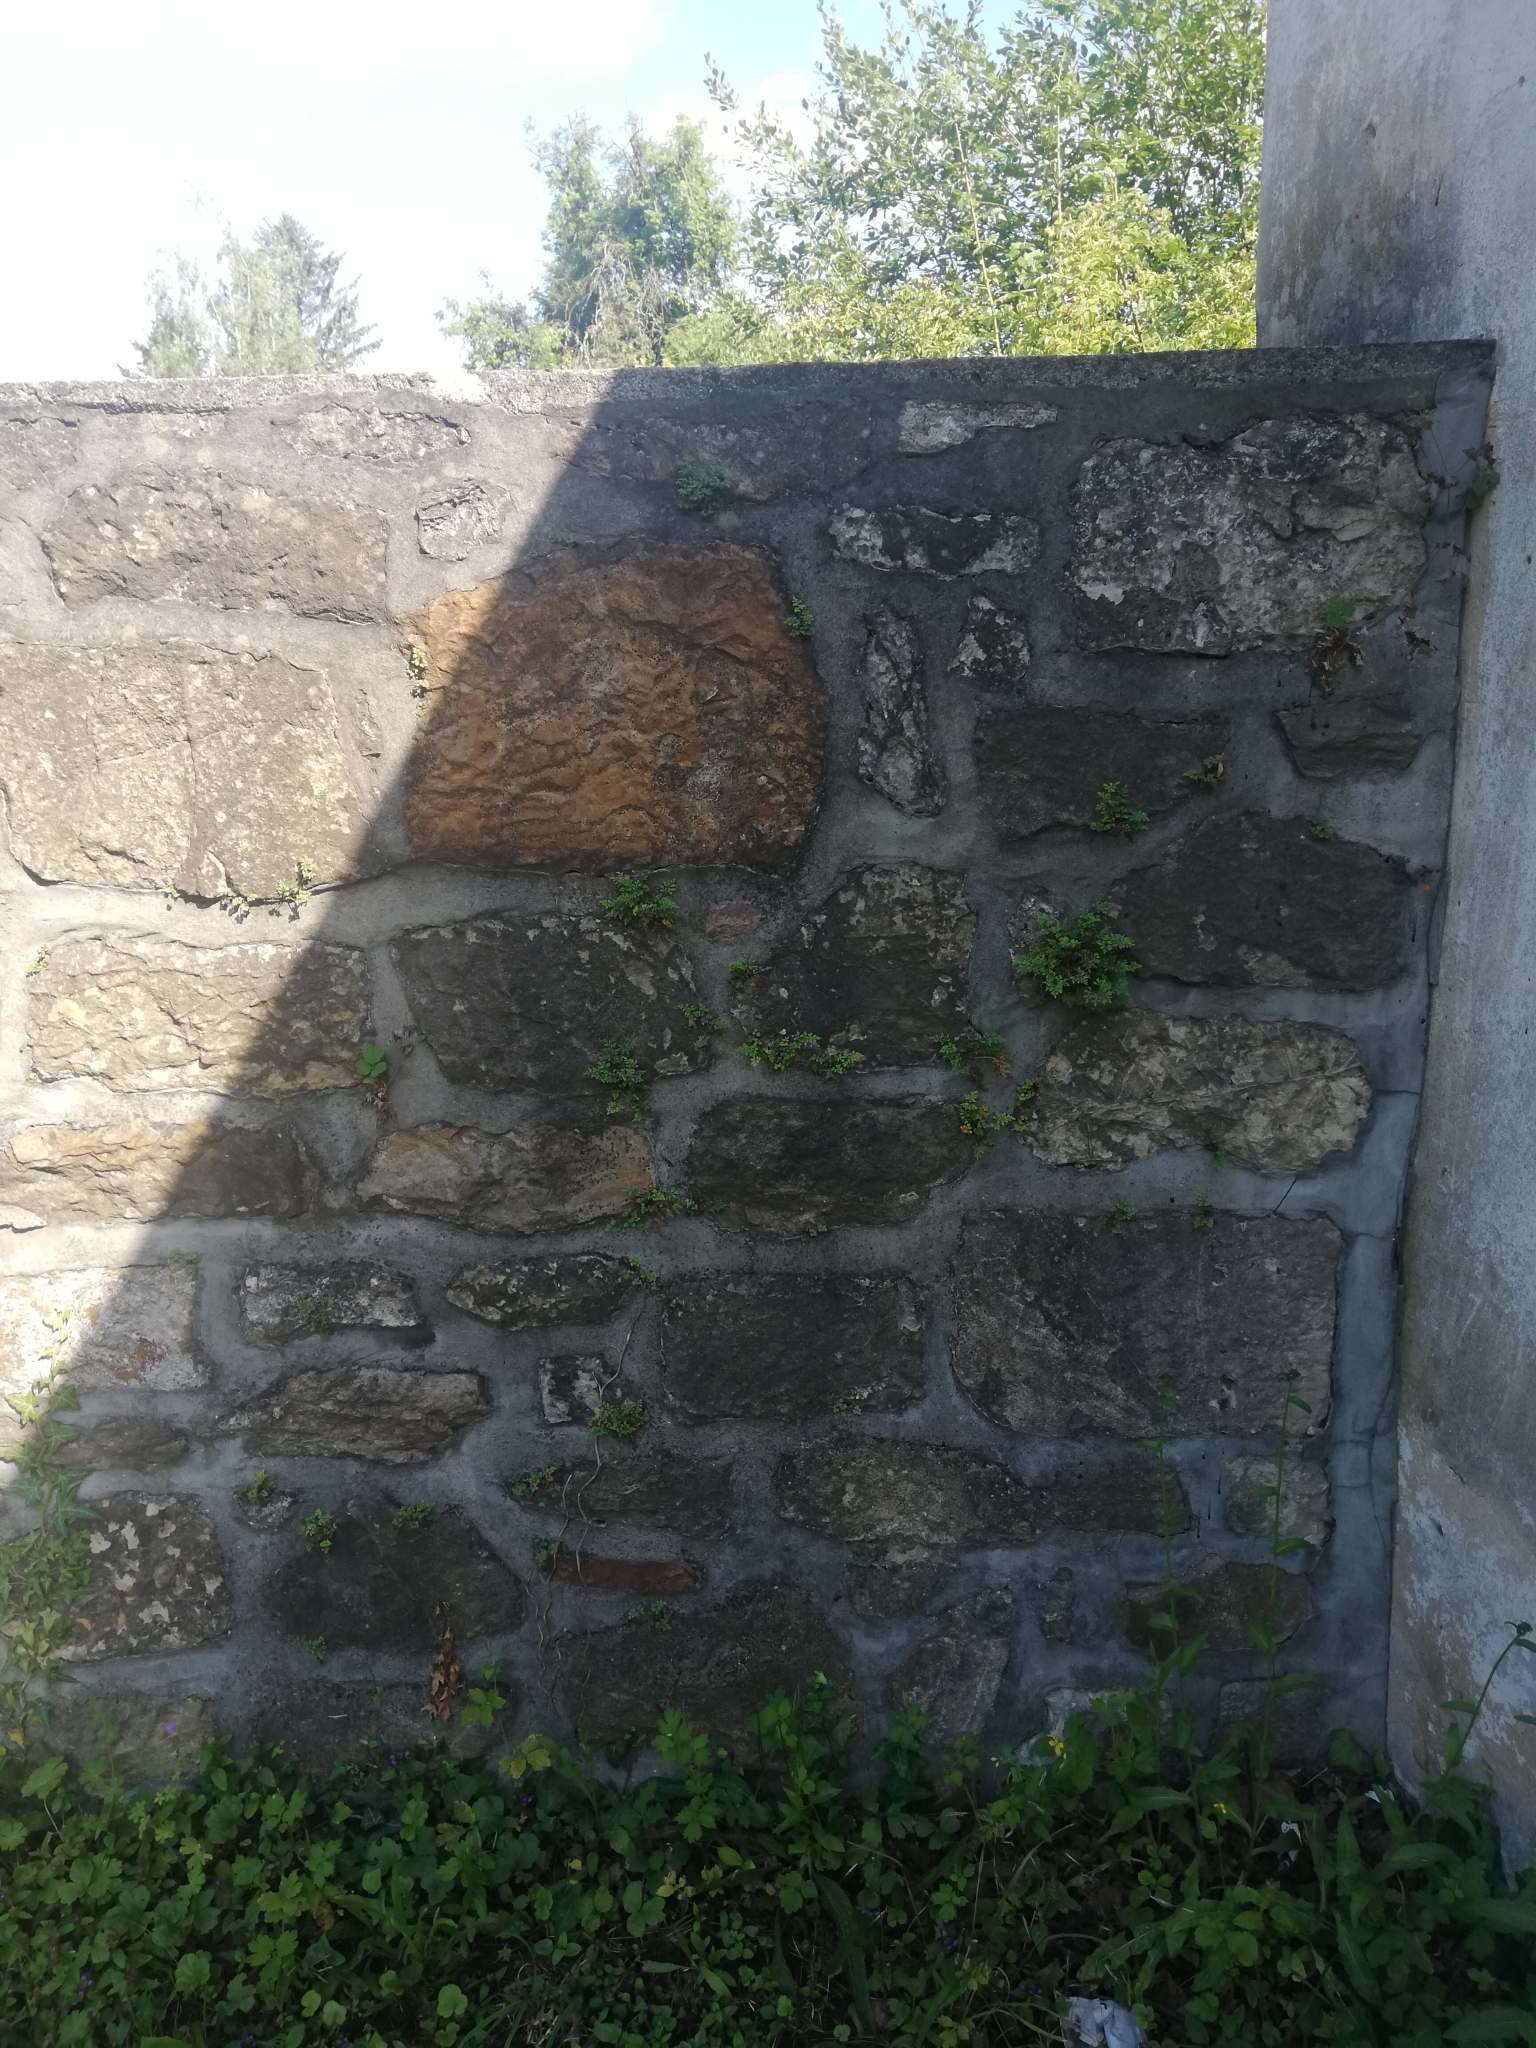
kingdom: Plantae
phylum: Tracheophyta
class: Polypodiopsida
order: Polypodiales
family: Aspleniaceae
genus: Asplenium
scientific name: Asplenium ruta-muraria
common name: Wall-rue
